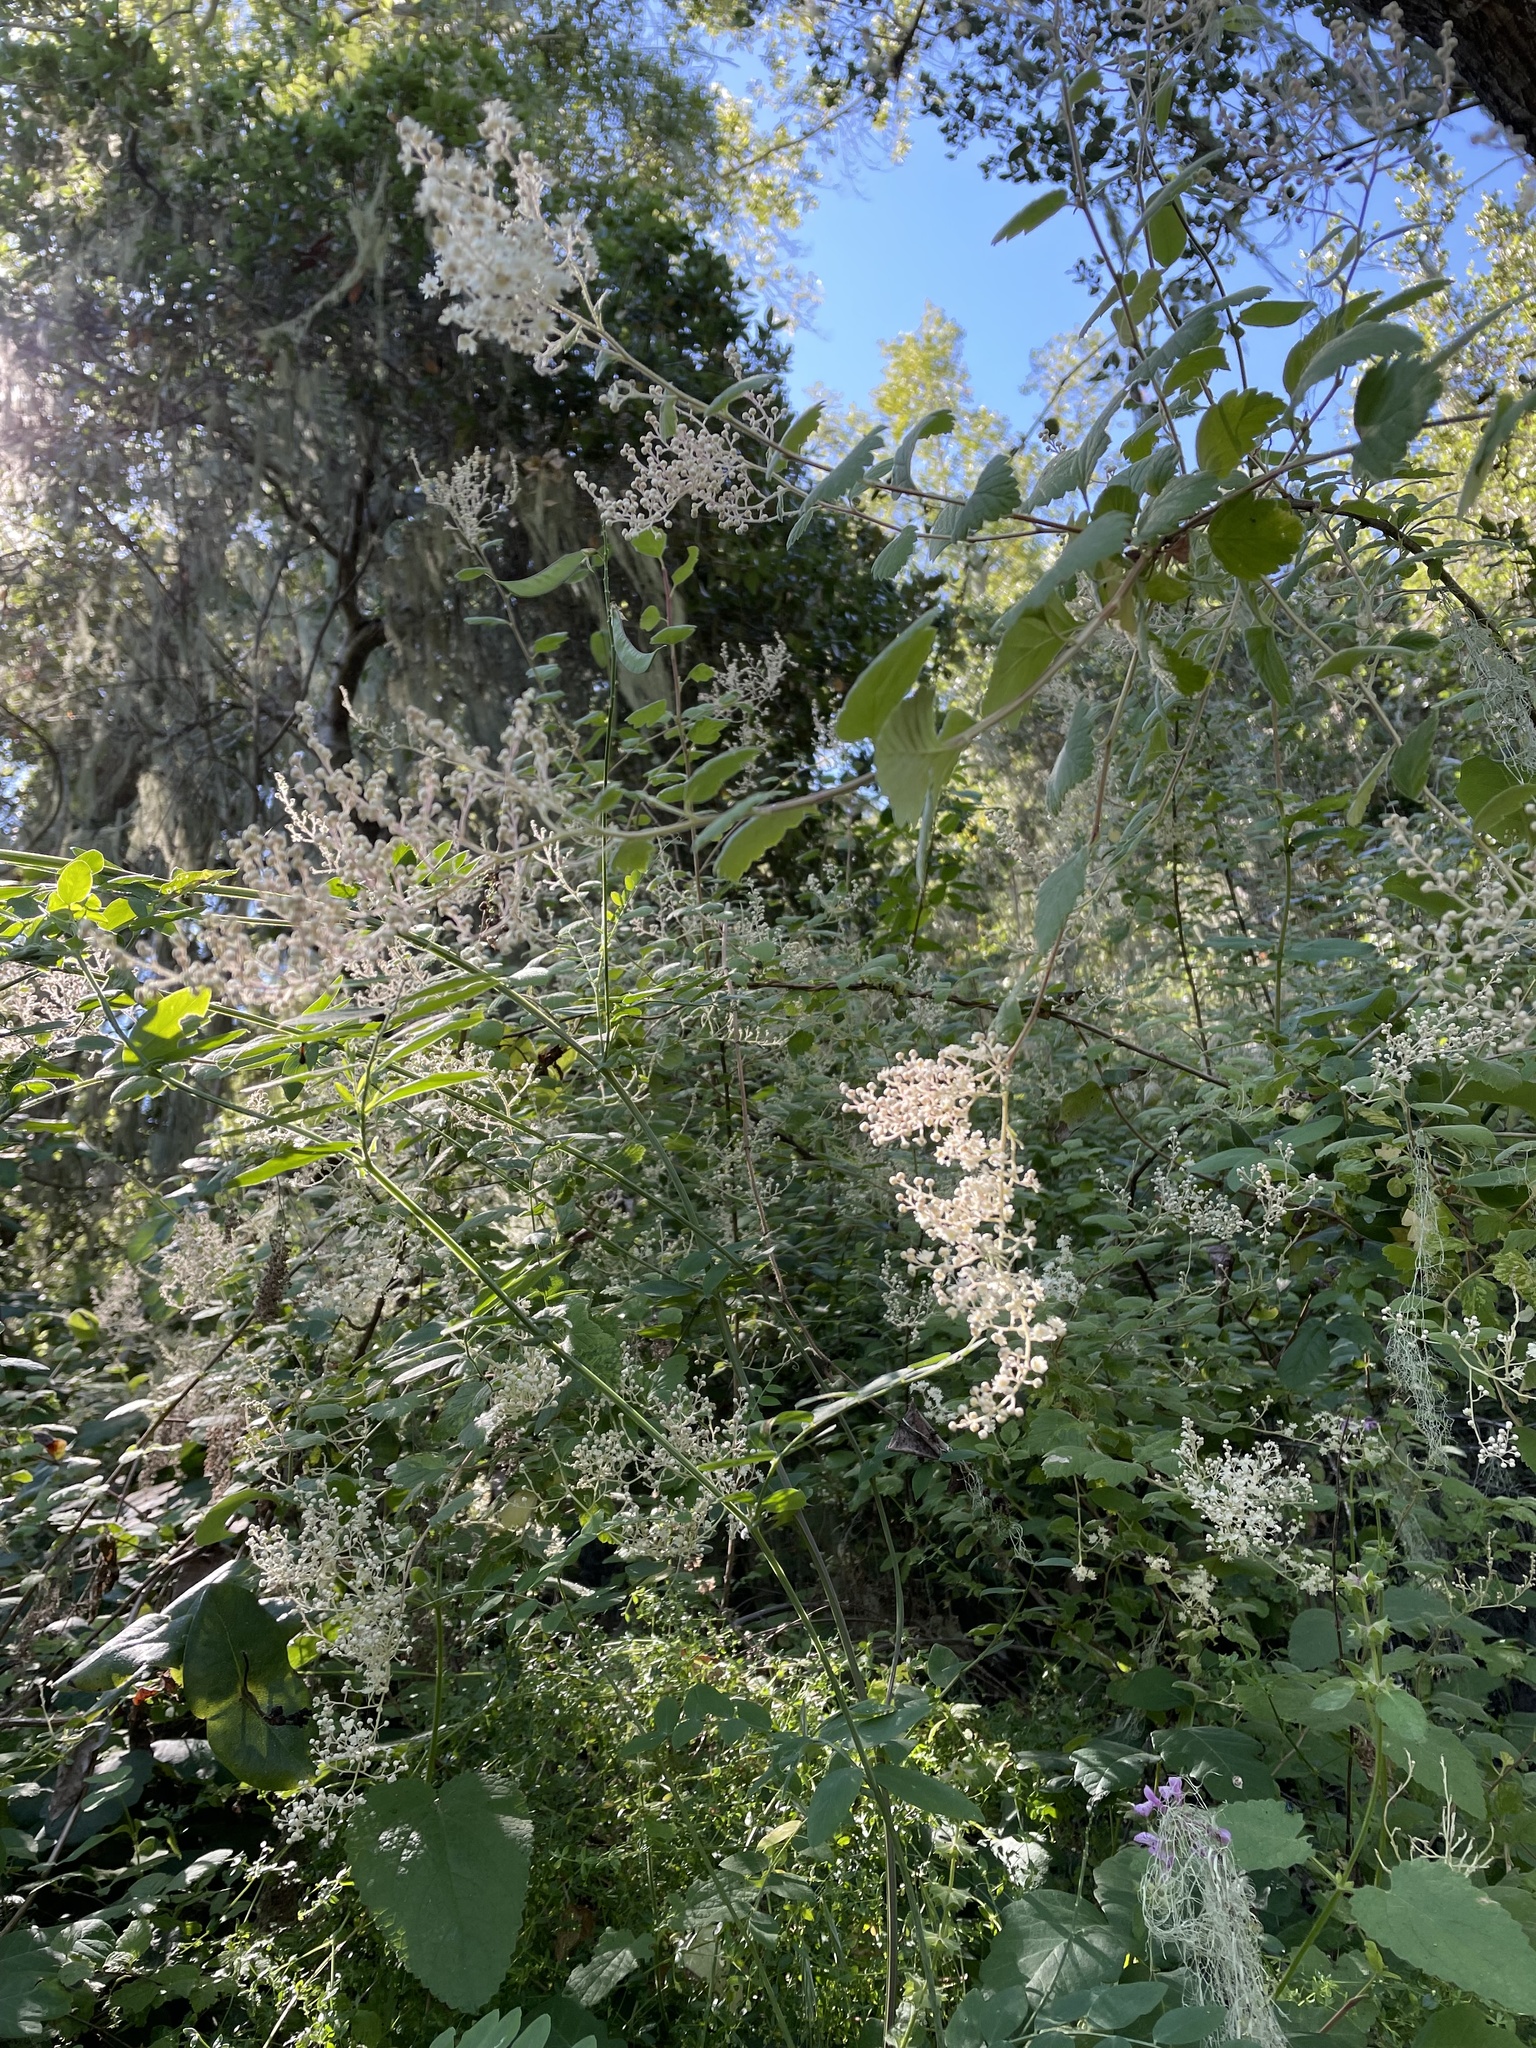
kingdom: Plantae
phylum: Tracheophyta
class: Magnoliopsida
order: Rosales
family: Rosaceae
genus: Holodiscus
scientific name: Holodiscus discolor
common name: Oceanspray
